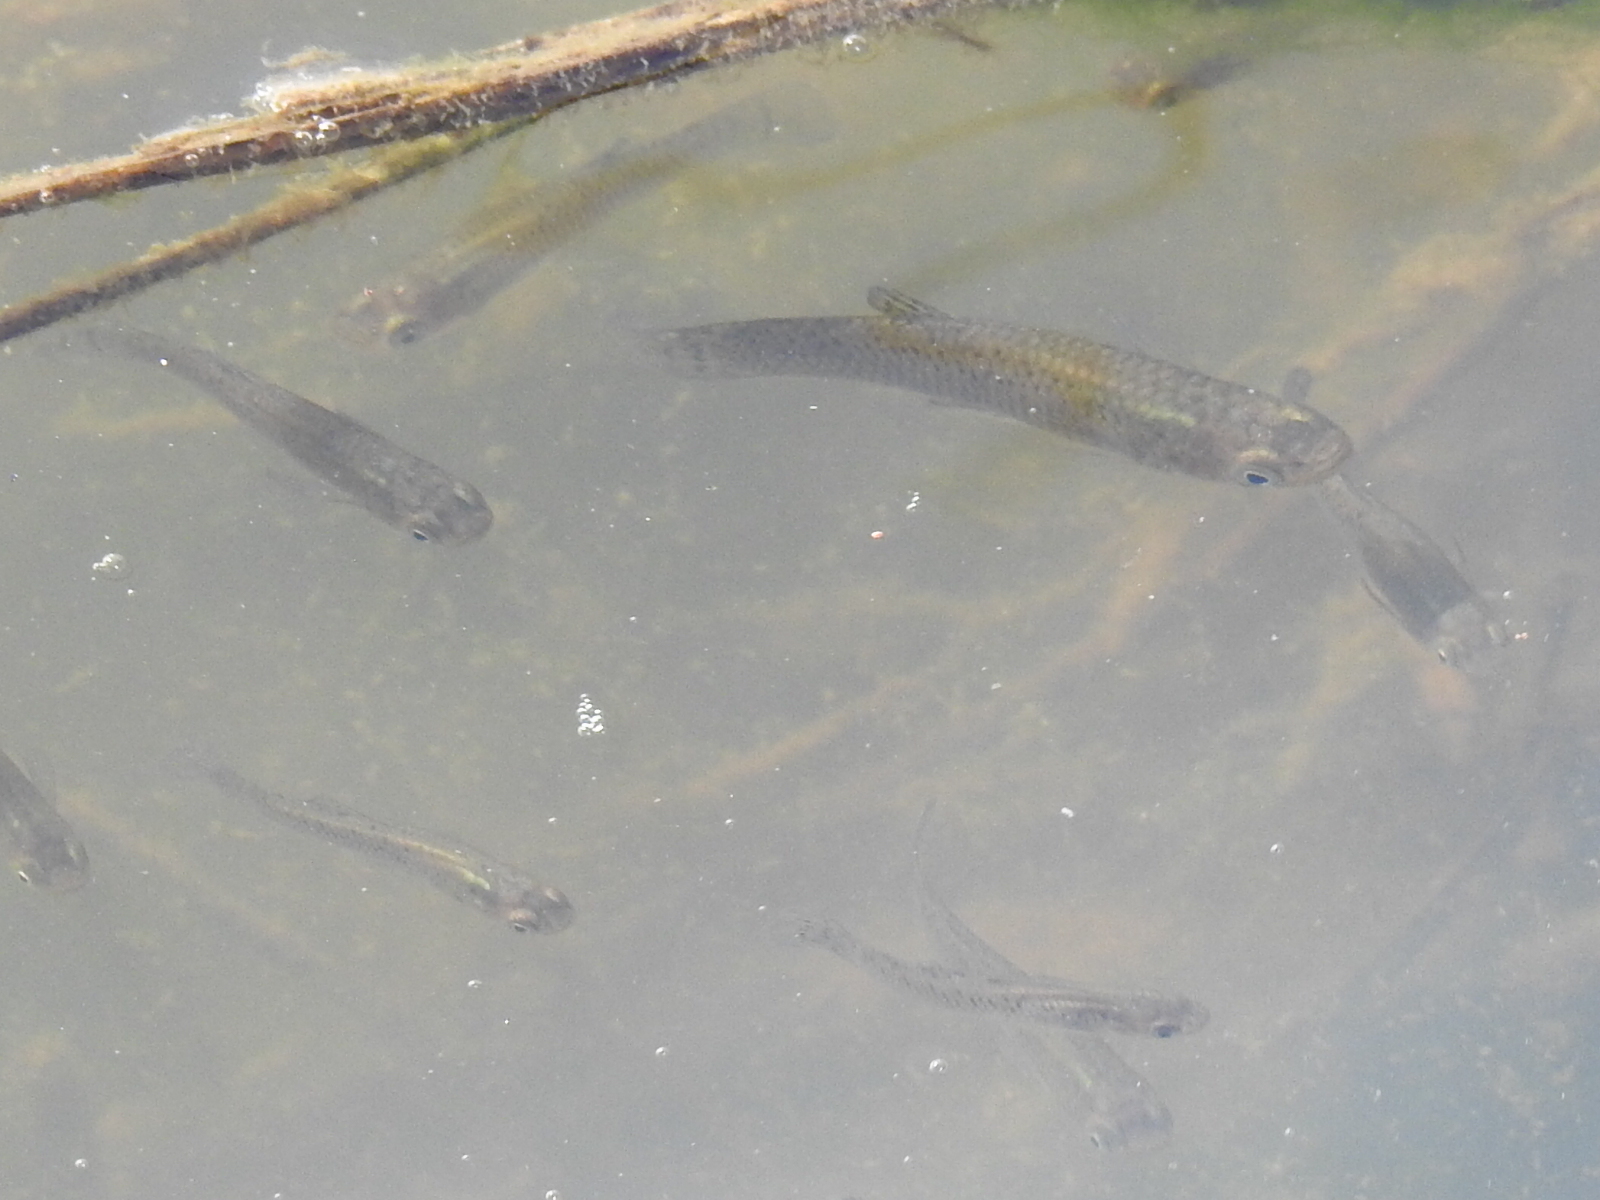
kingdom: Animalia
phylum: Chordata
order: Cyprinodontiformes
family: Poeciliidae
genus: Gambusia
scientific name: Gambusia holbrooki
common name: Eastern mosquitofish
